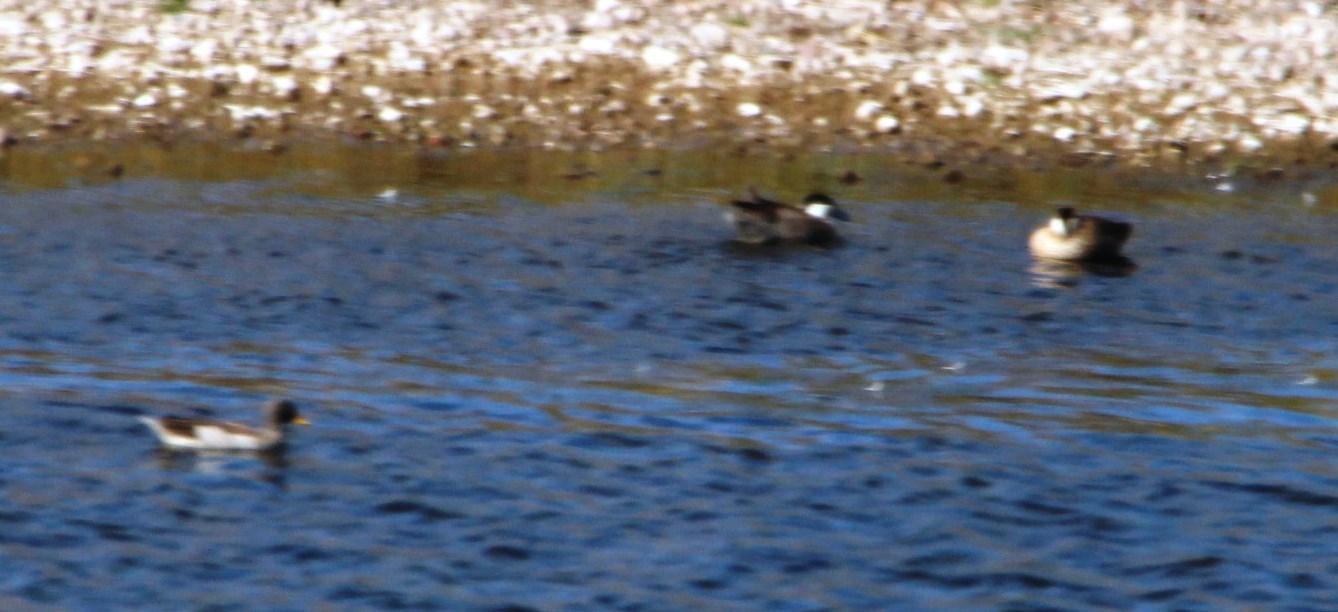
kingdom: Animalia
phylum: Chordata
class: Aves
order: Anseriformes
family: Anatidae
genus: Spatula
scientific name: Spatula puna
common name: Puna teal
